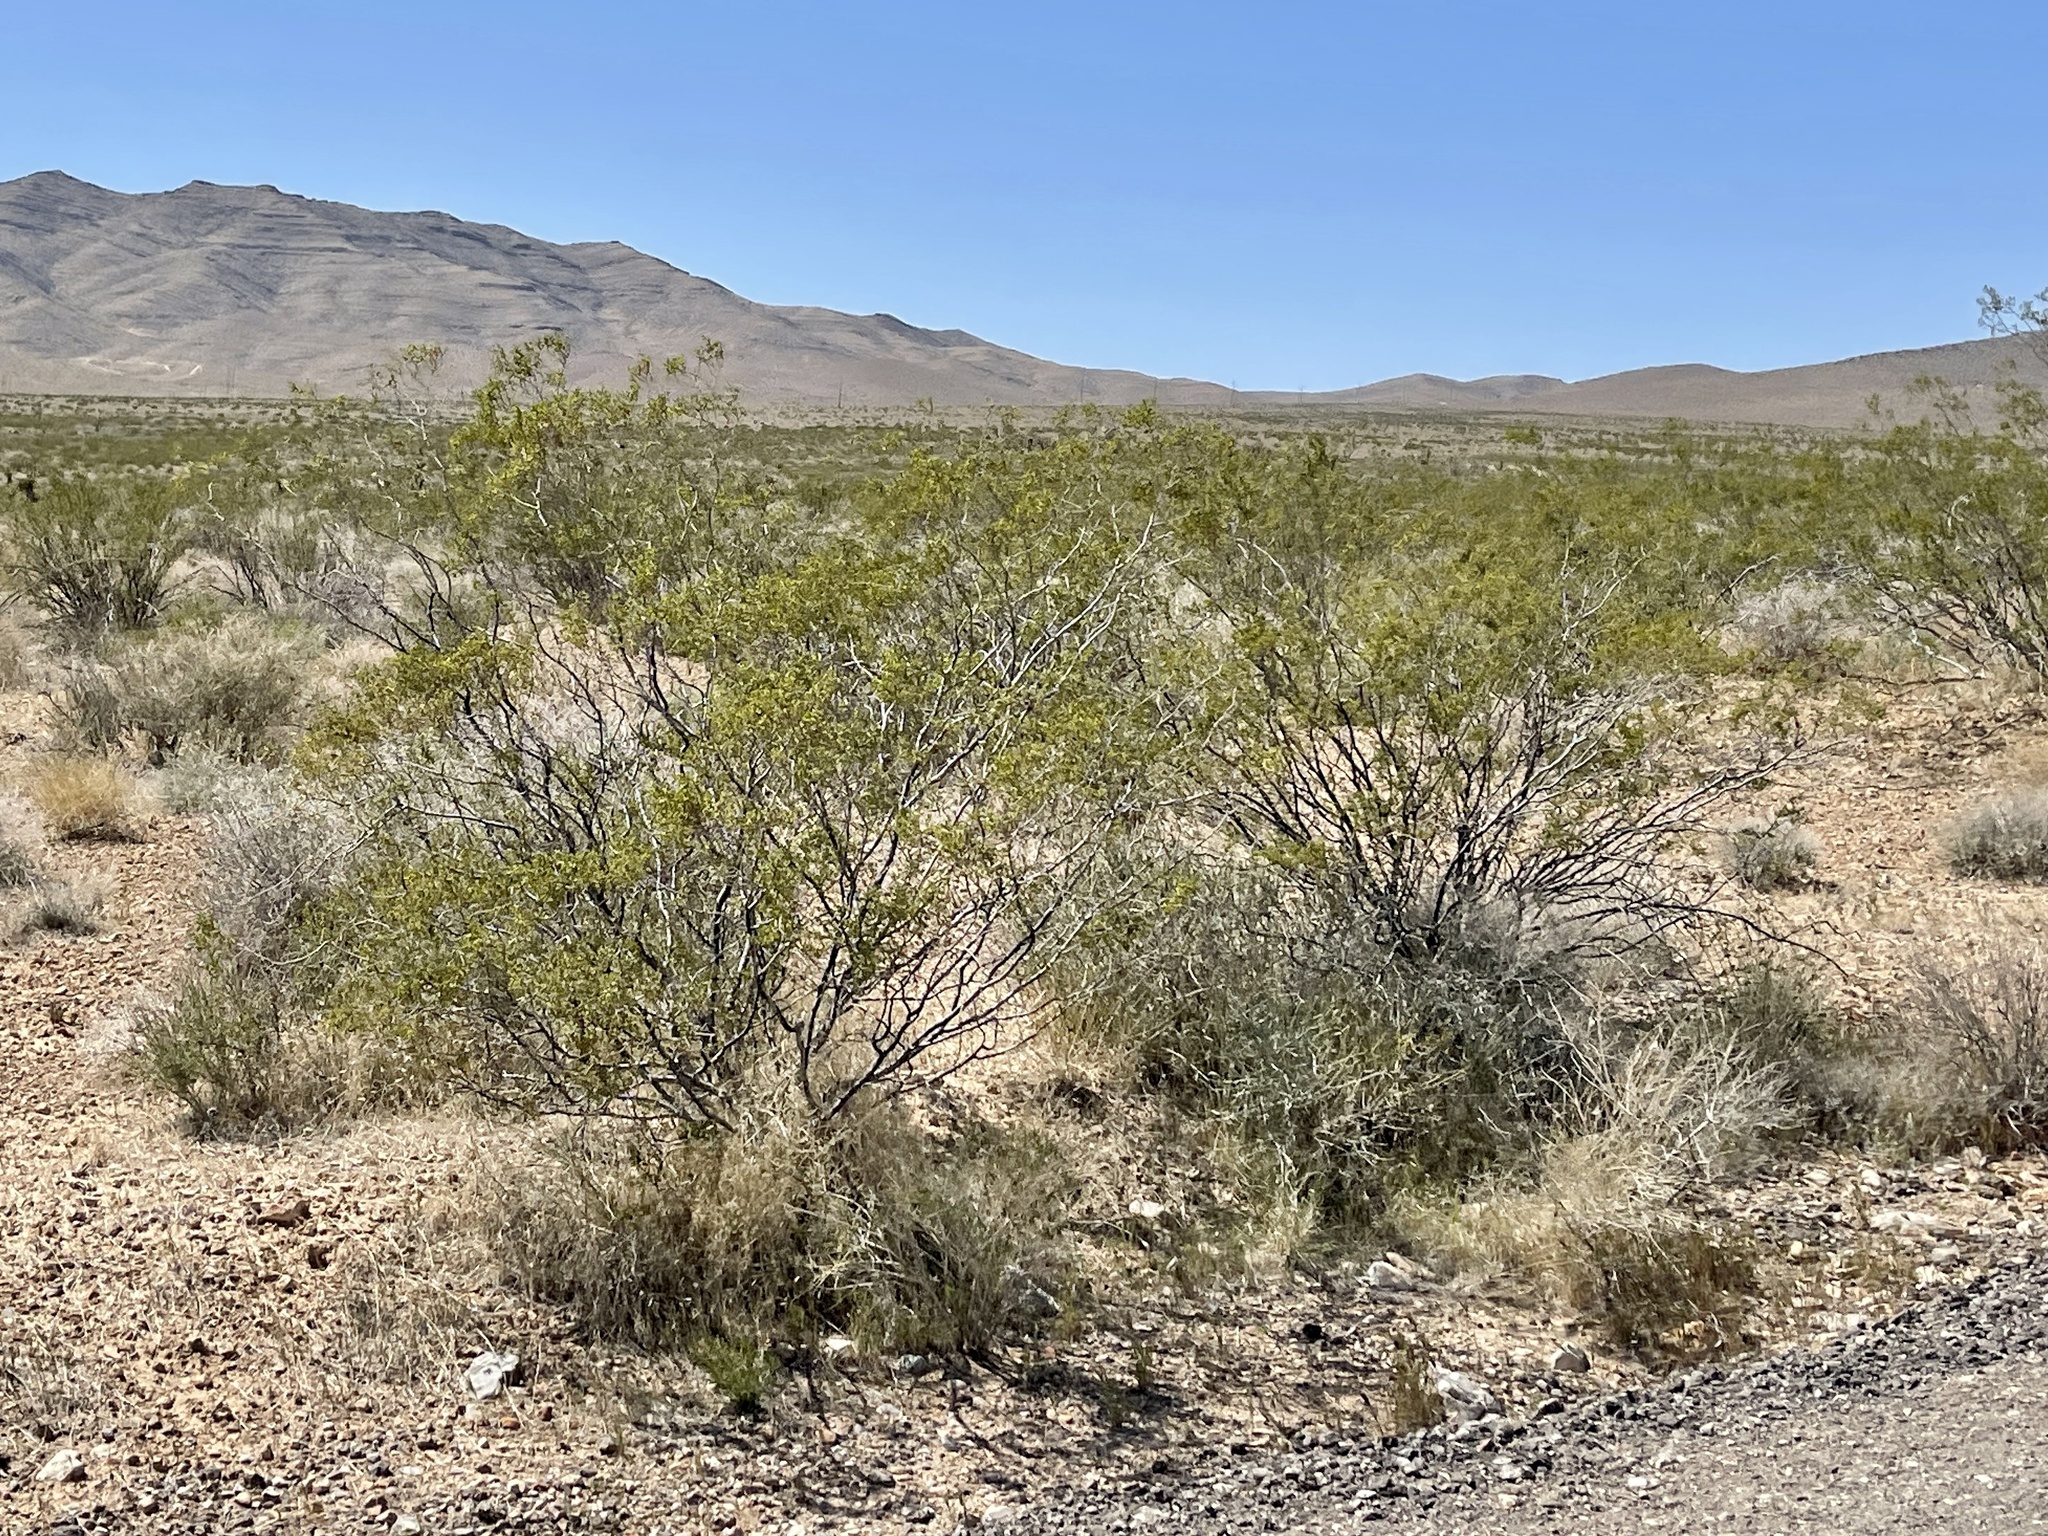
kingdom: Plantae
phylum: Tracheophyta
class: Magnoliopsida
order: Zygophyllales
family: Zygophyllaceae
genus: Larrea
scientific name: Larrea tridentata
